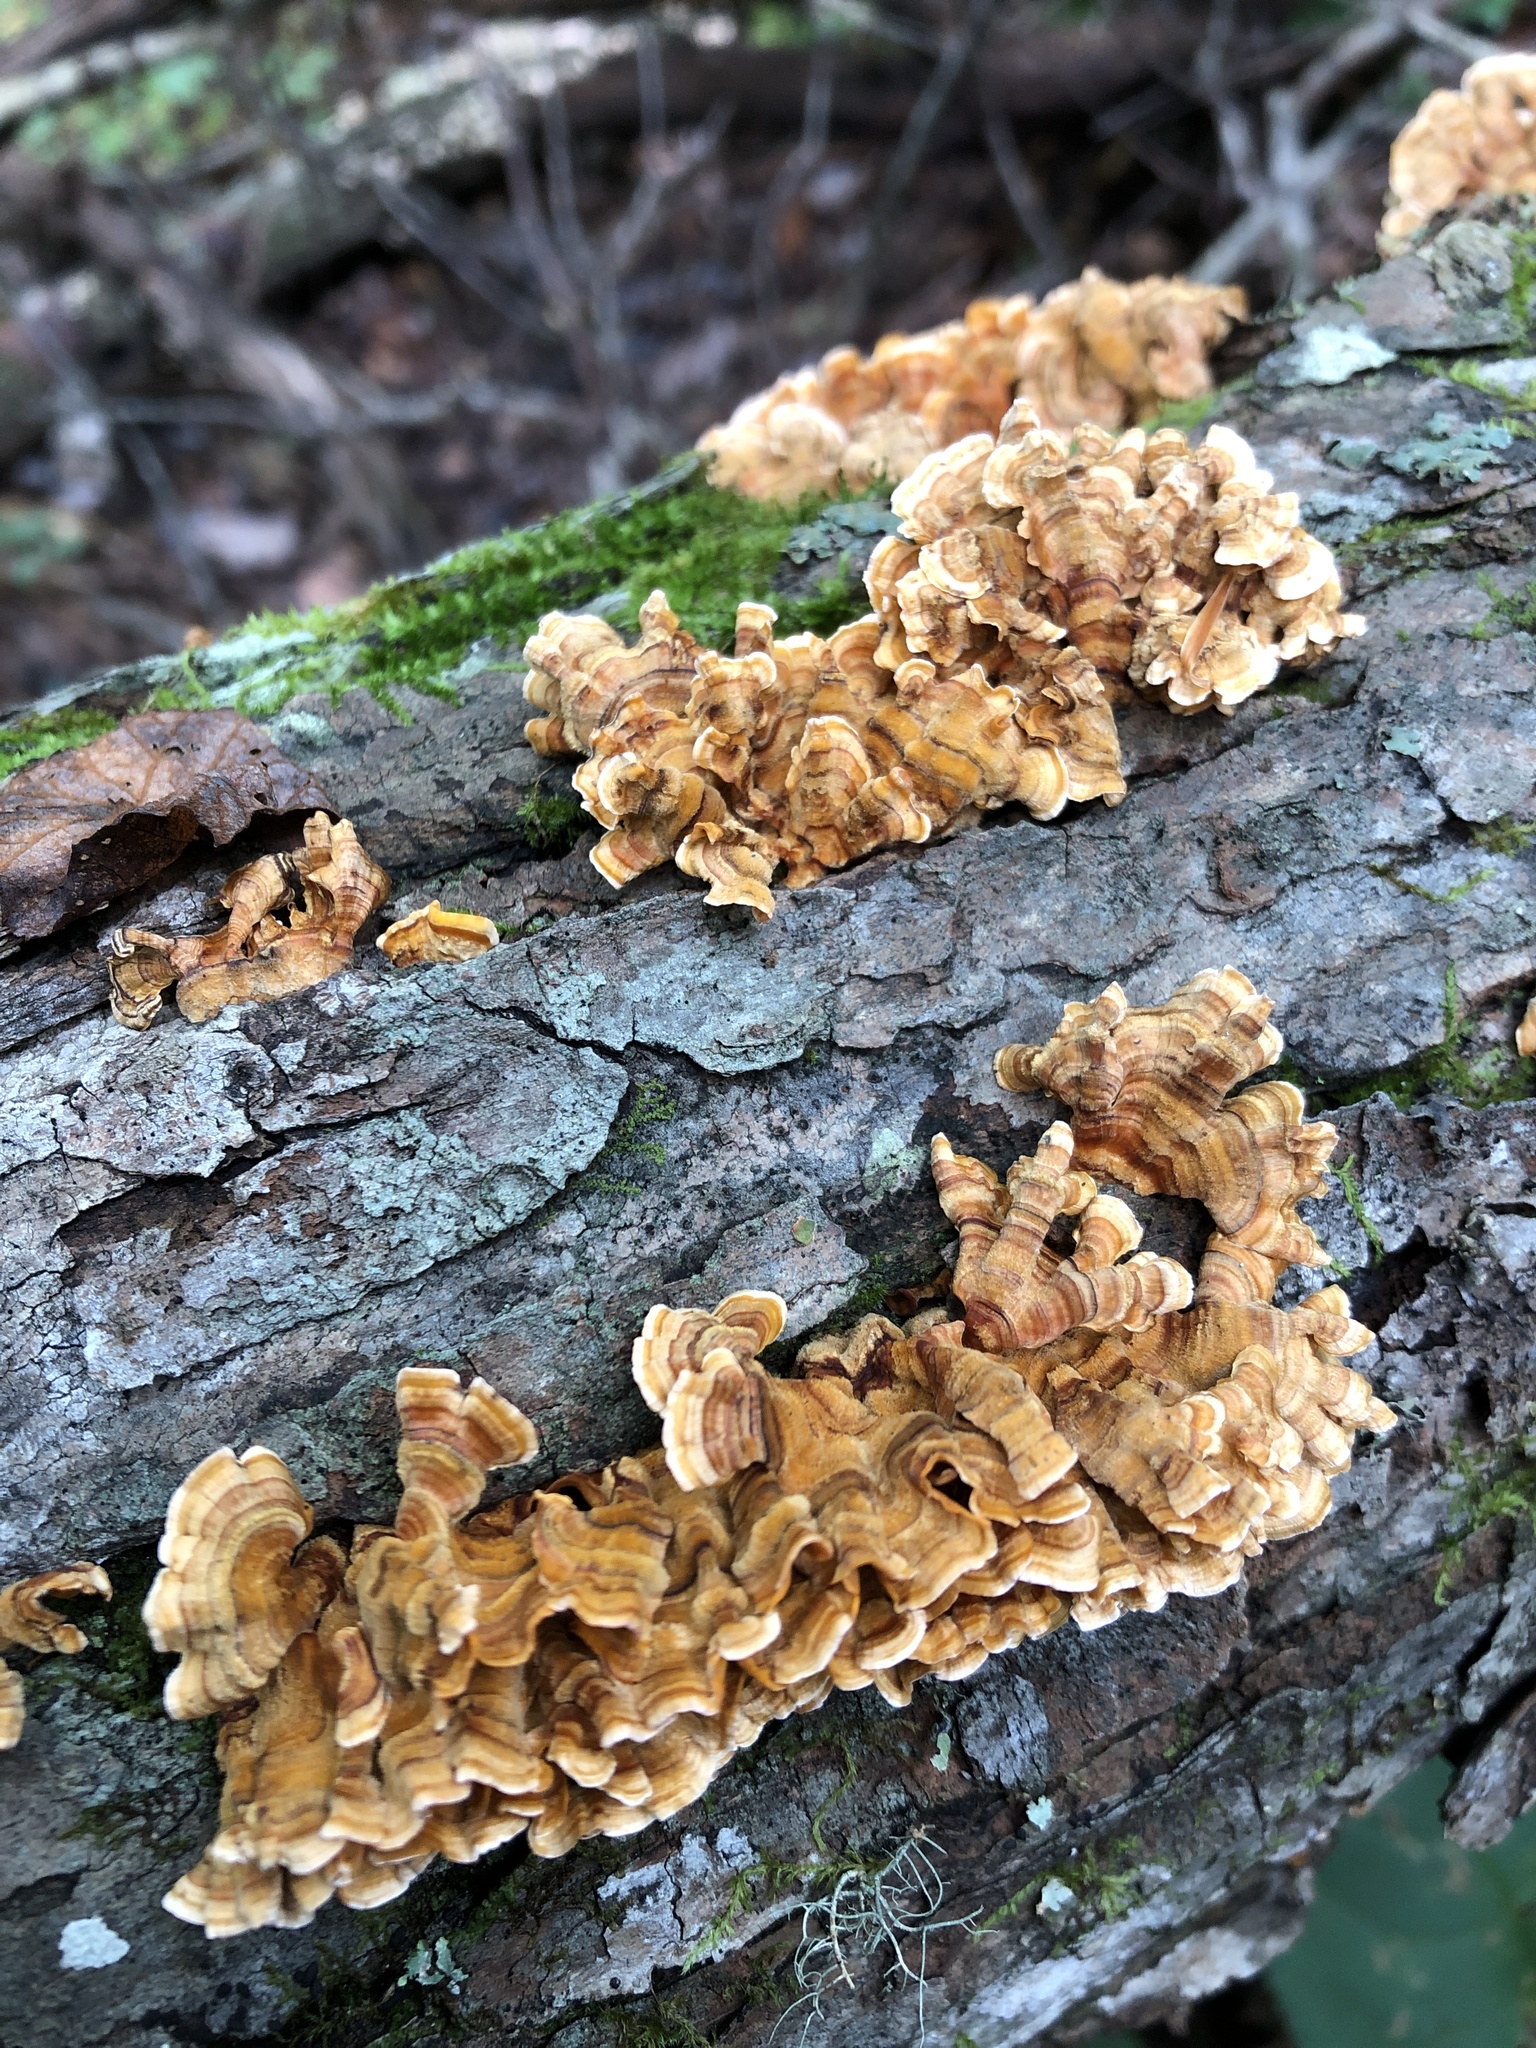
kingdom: Fungi
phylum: Basidiomycota
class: Agaricomycetes
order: Russulales
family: Stereaceae
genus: Stereum
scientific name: Stereum complicatum
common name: Crowded parchment
